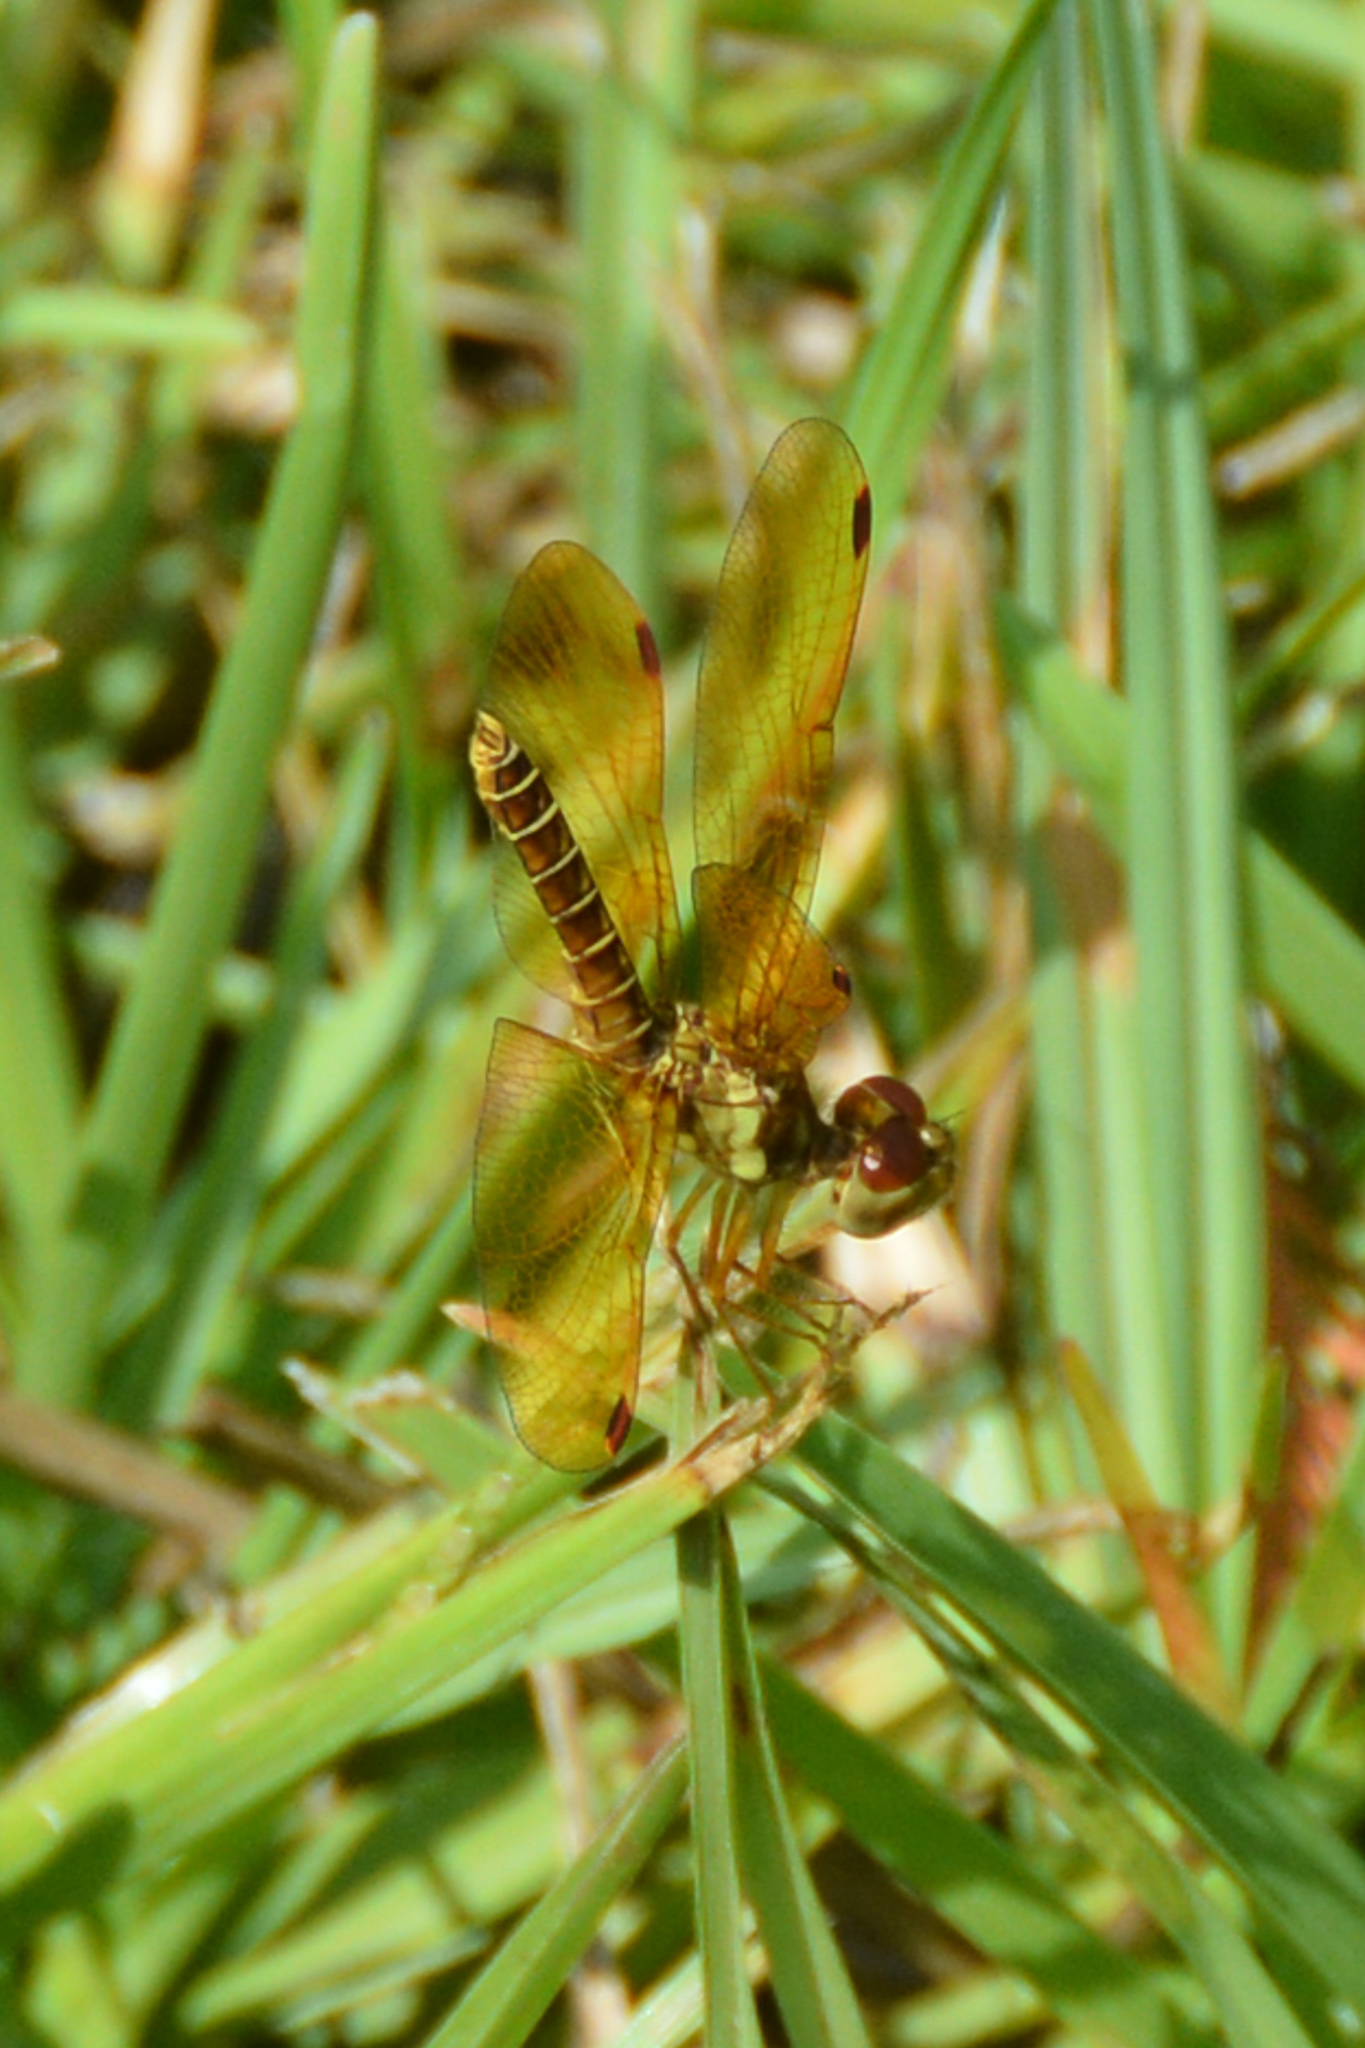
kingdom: Animalia
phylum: Arthropoda
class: Insecta
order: Odonata
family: Libellulidae
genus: Perithemis
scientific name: Perithemis tenera
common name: Eastern amberwing
